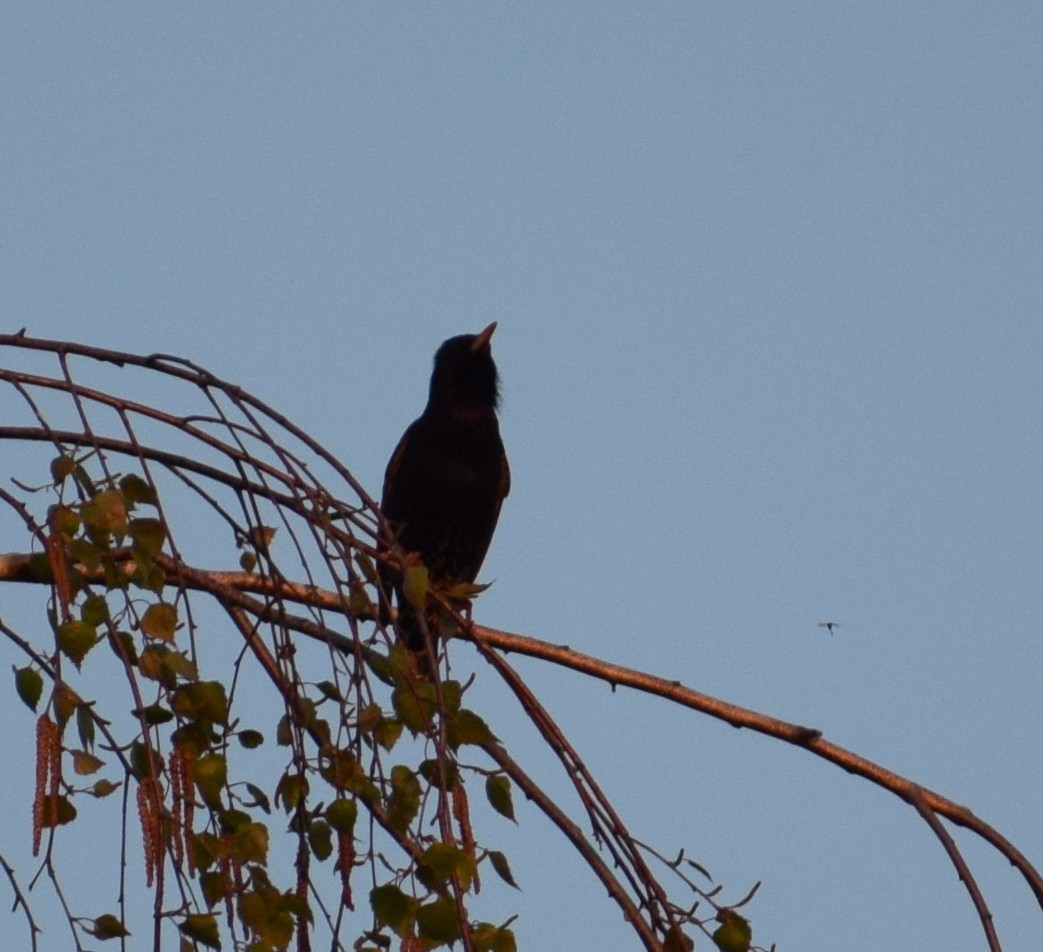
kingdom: Animalia
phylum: Chordata
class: Aves
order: Passeriformes
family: Sturnidae
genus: Sturnus
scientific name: Sturnus vulgaris
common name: Common starling
